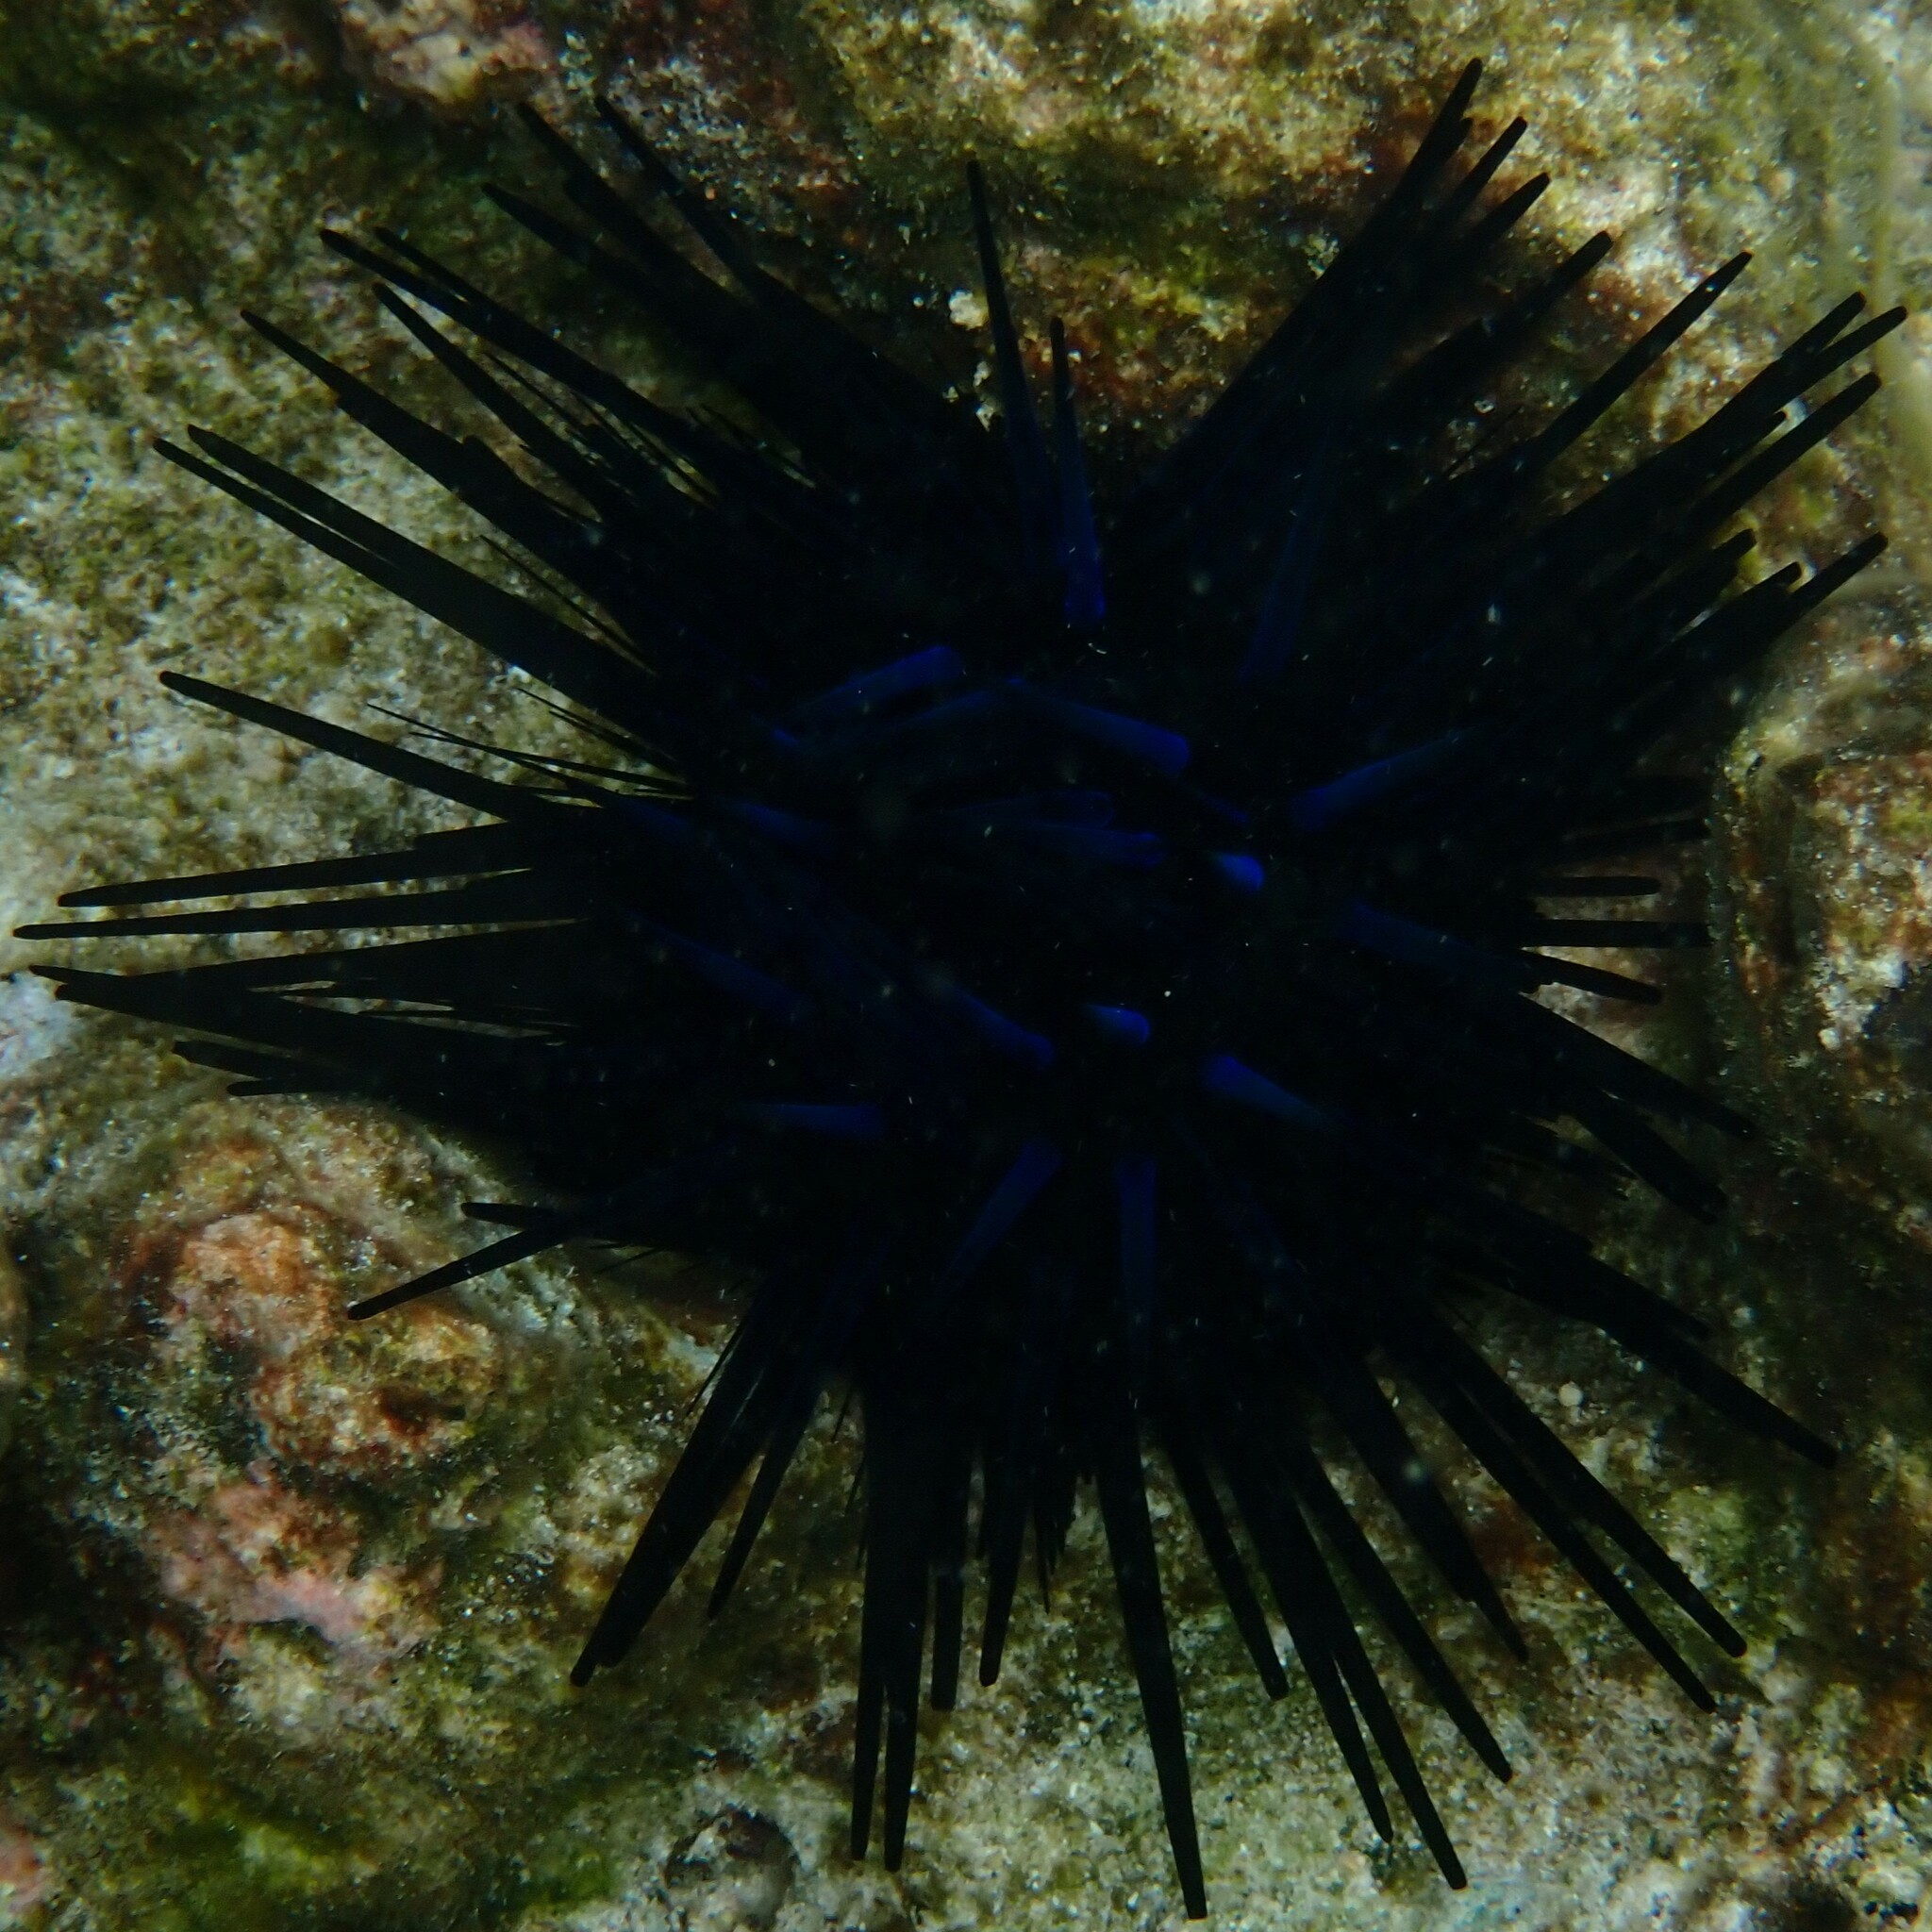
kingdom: Animalia
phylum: Echinodermata
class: Echinoidea
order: Diadematoida
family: Diadematidae
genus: Echinothrix
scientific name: Echinothrix diadema
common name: Schwarzer diademseeigel
